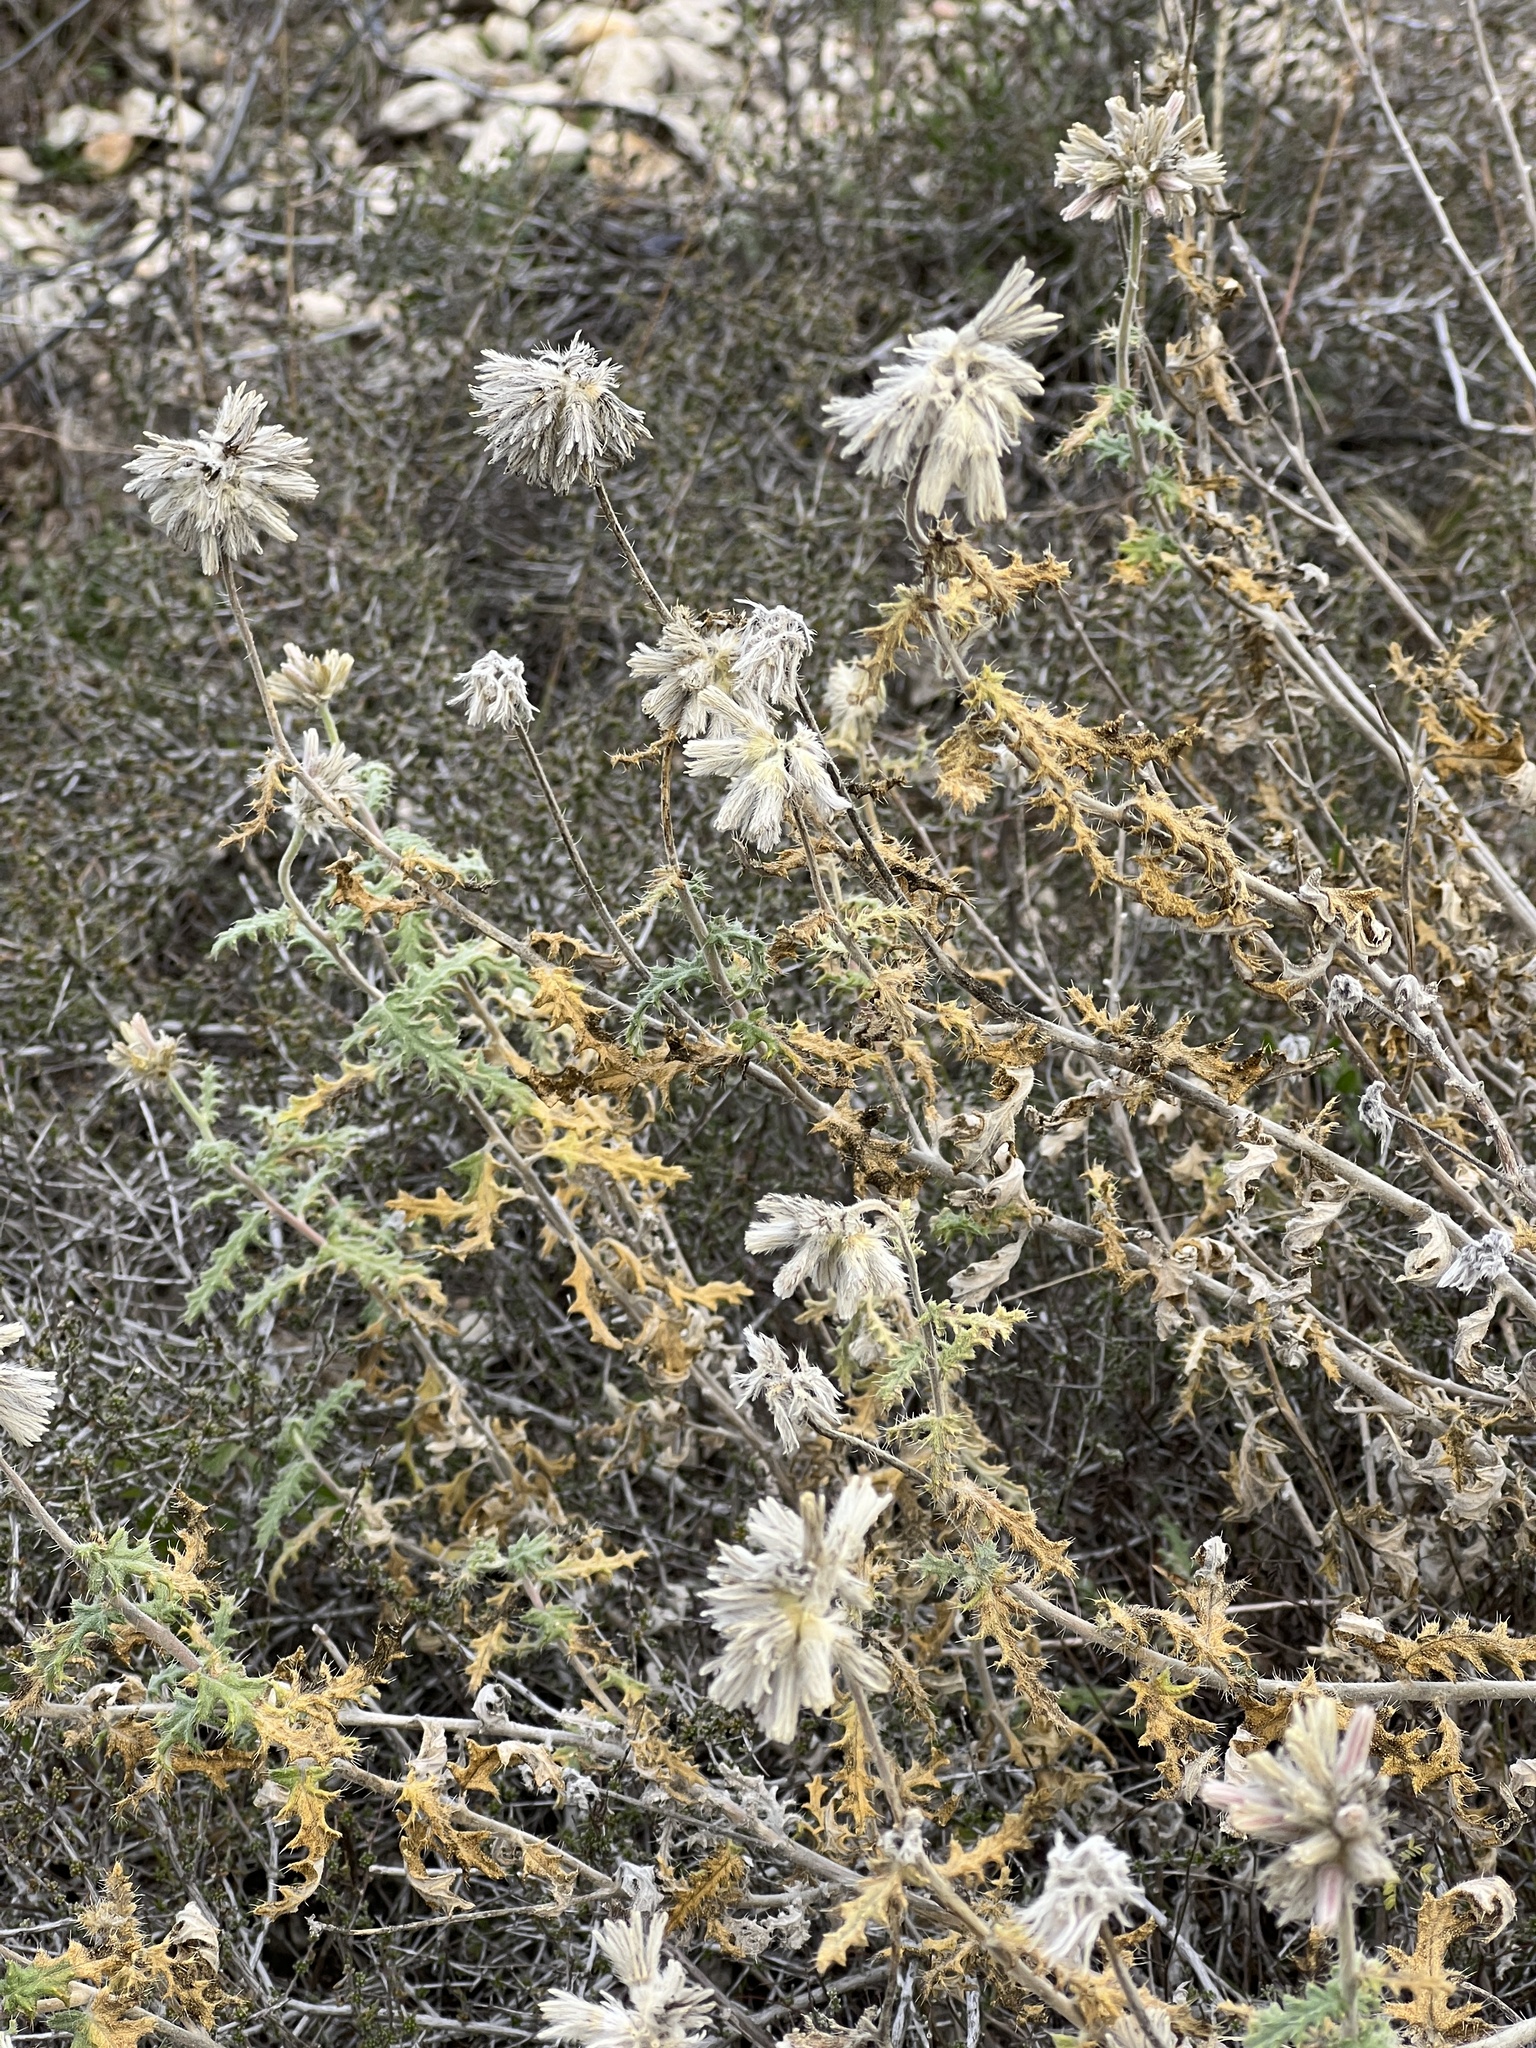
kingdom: Plantae
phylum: Tracheophyta
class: Magnoliopsida
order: Cornales
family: Loasaceae
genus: Cevallia
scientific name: Cevallia sinuata
